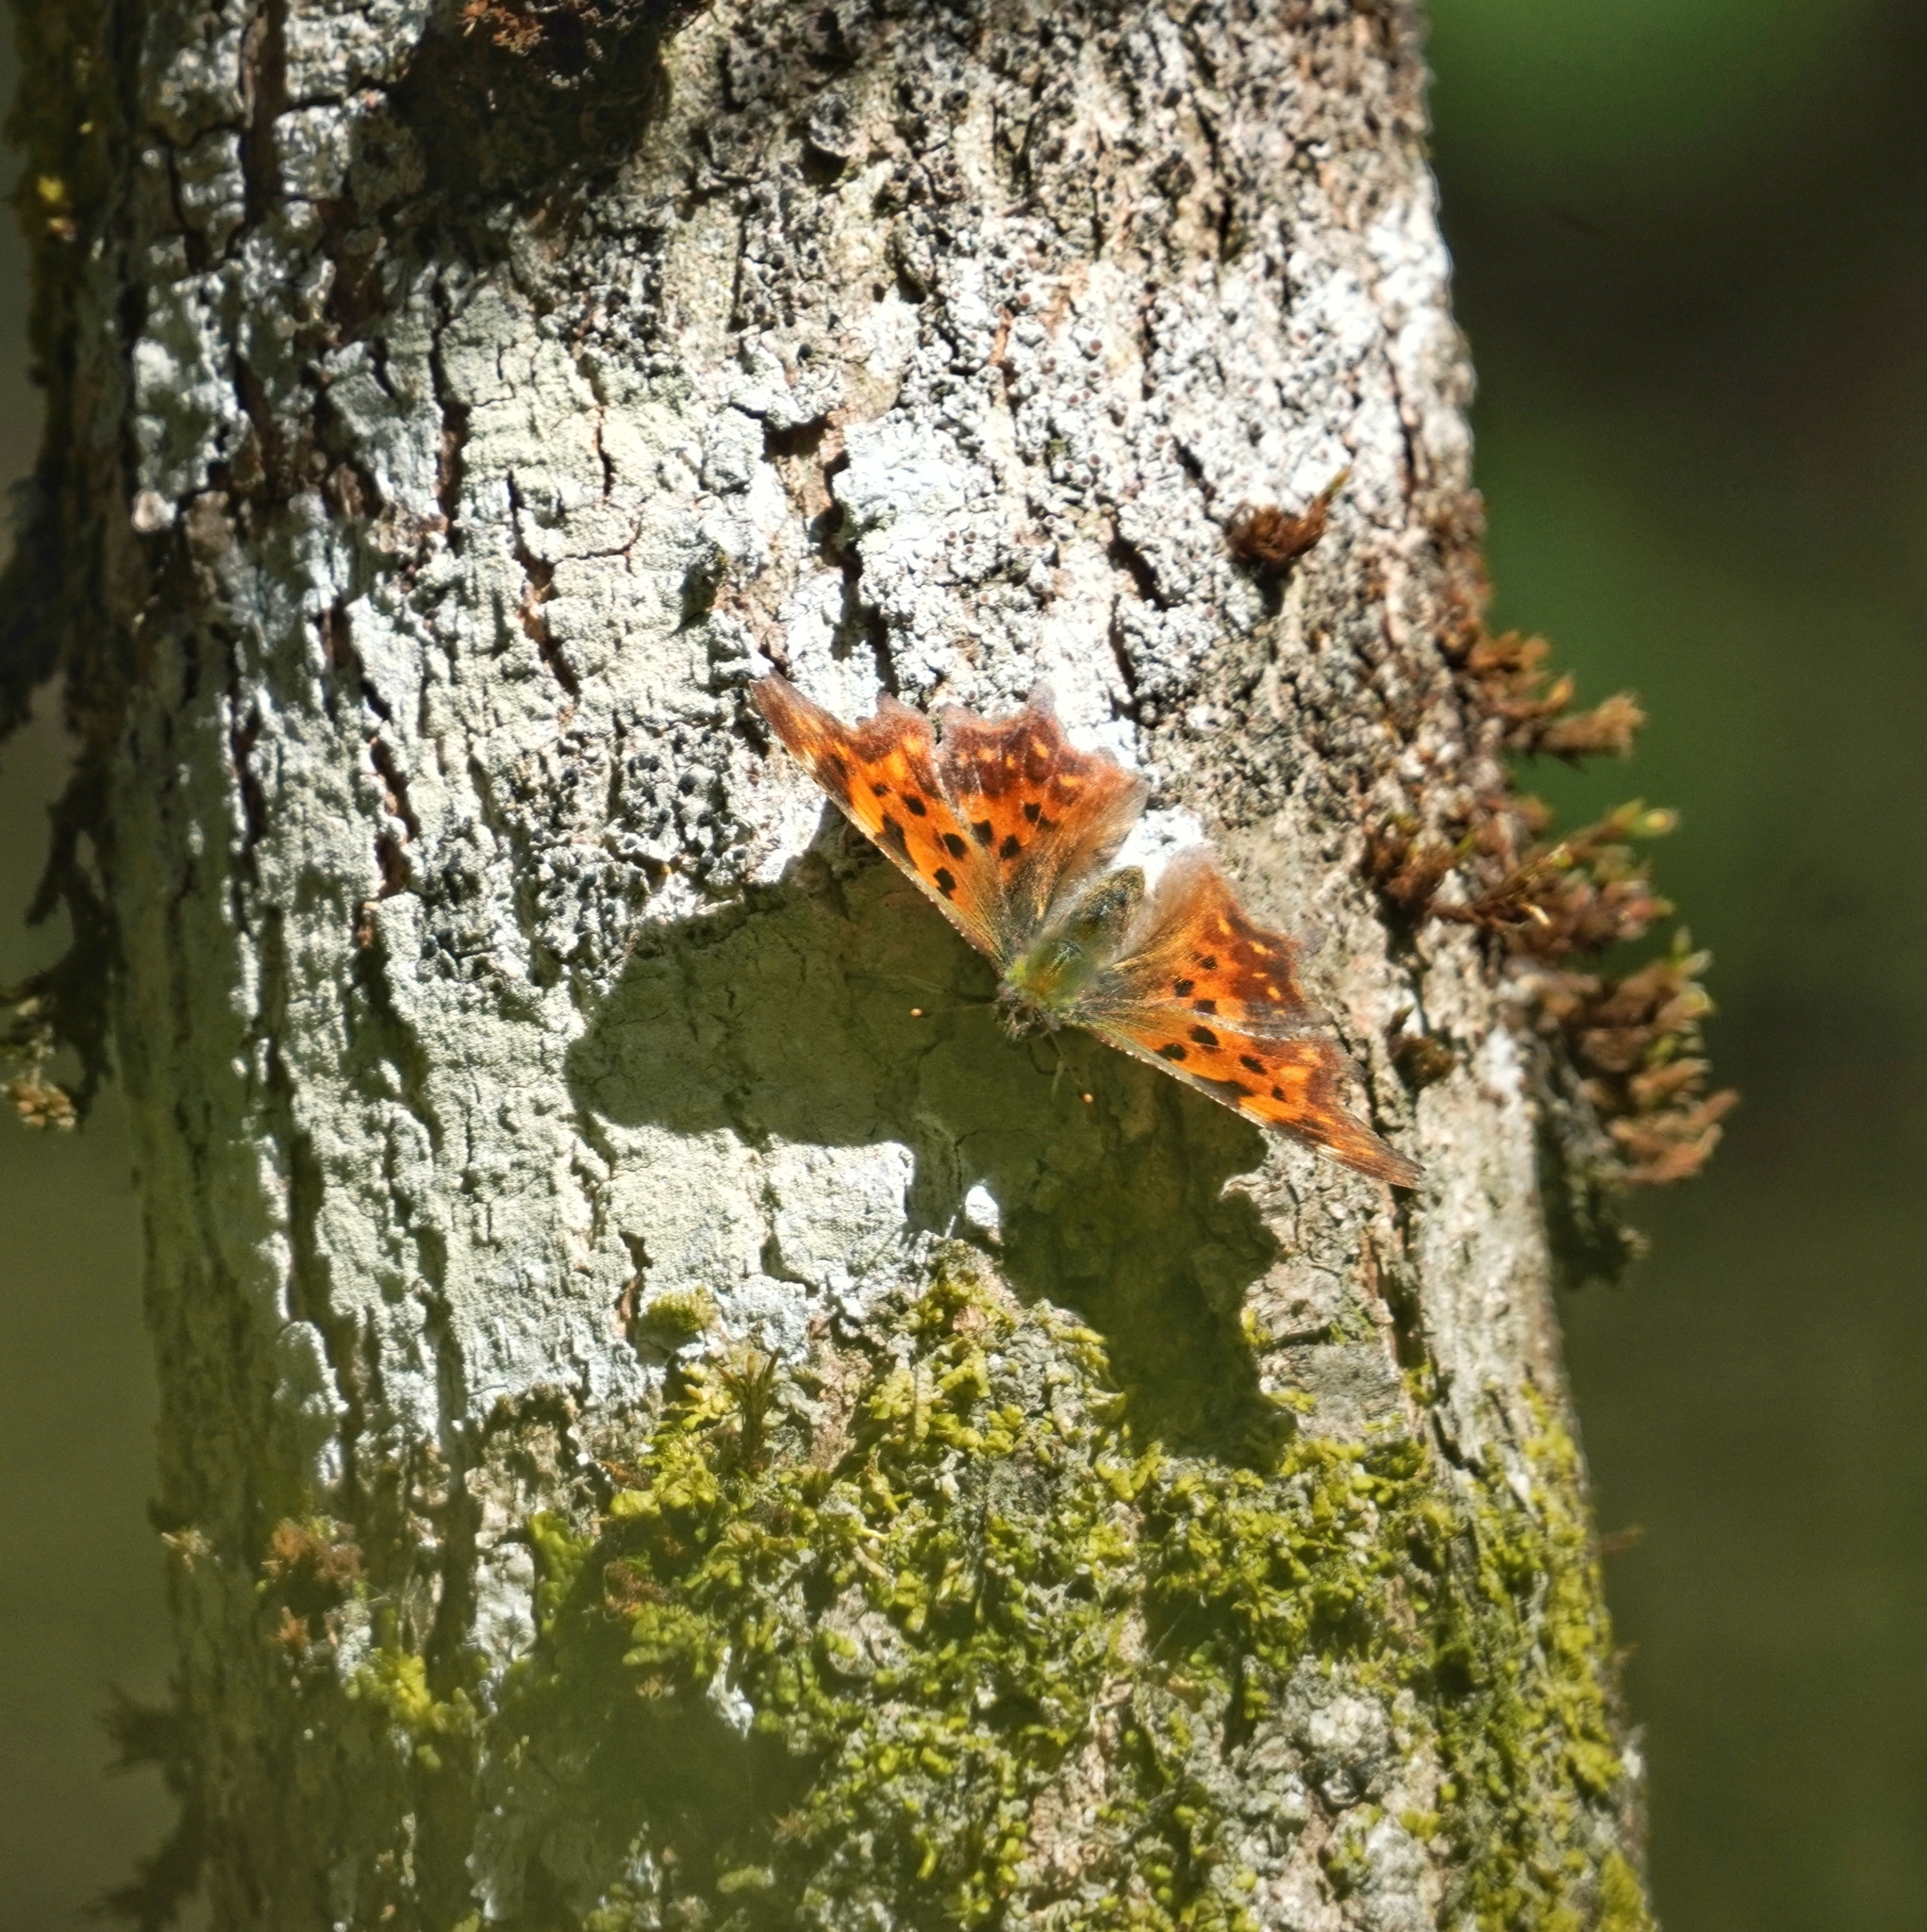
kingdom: Animalia
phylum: Arthropoda
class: Insecta
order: Lepidoptera
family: Nymphalidae
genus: Polygonia
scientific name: Polygonia c-album
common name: Comma
